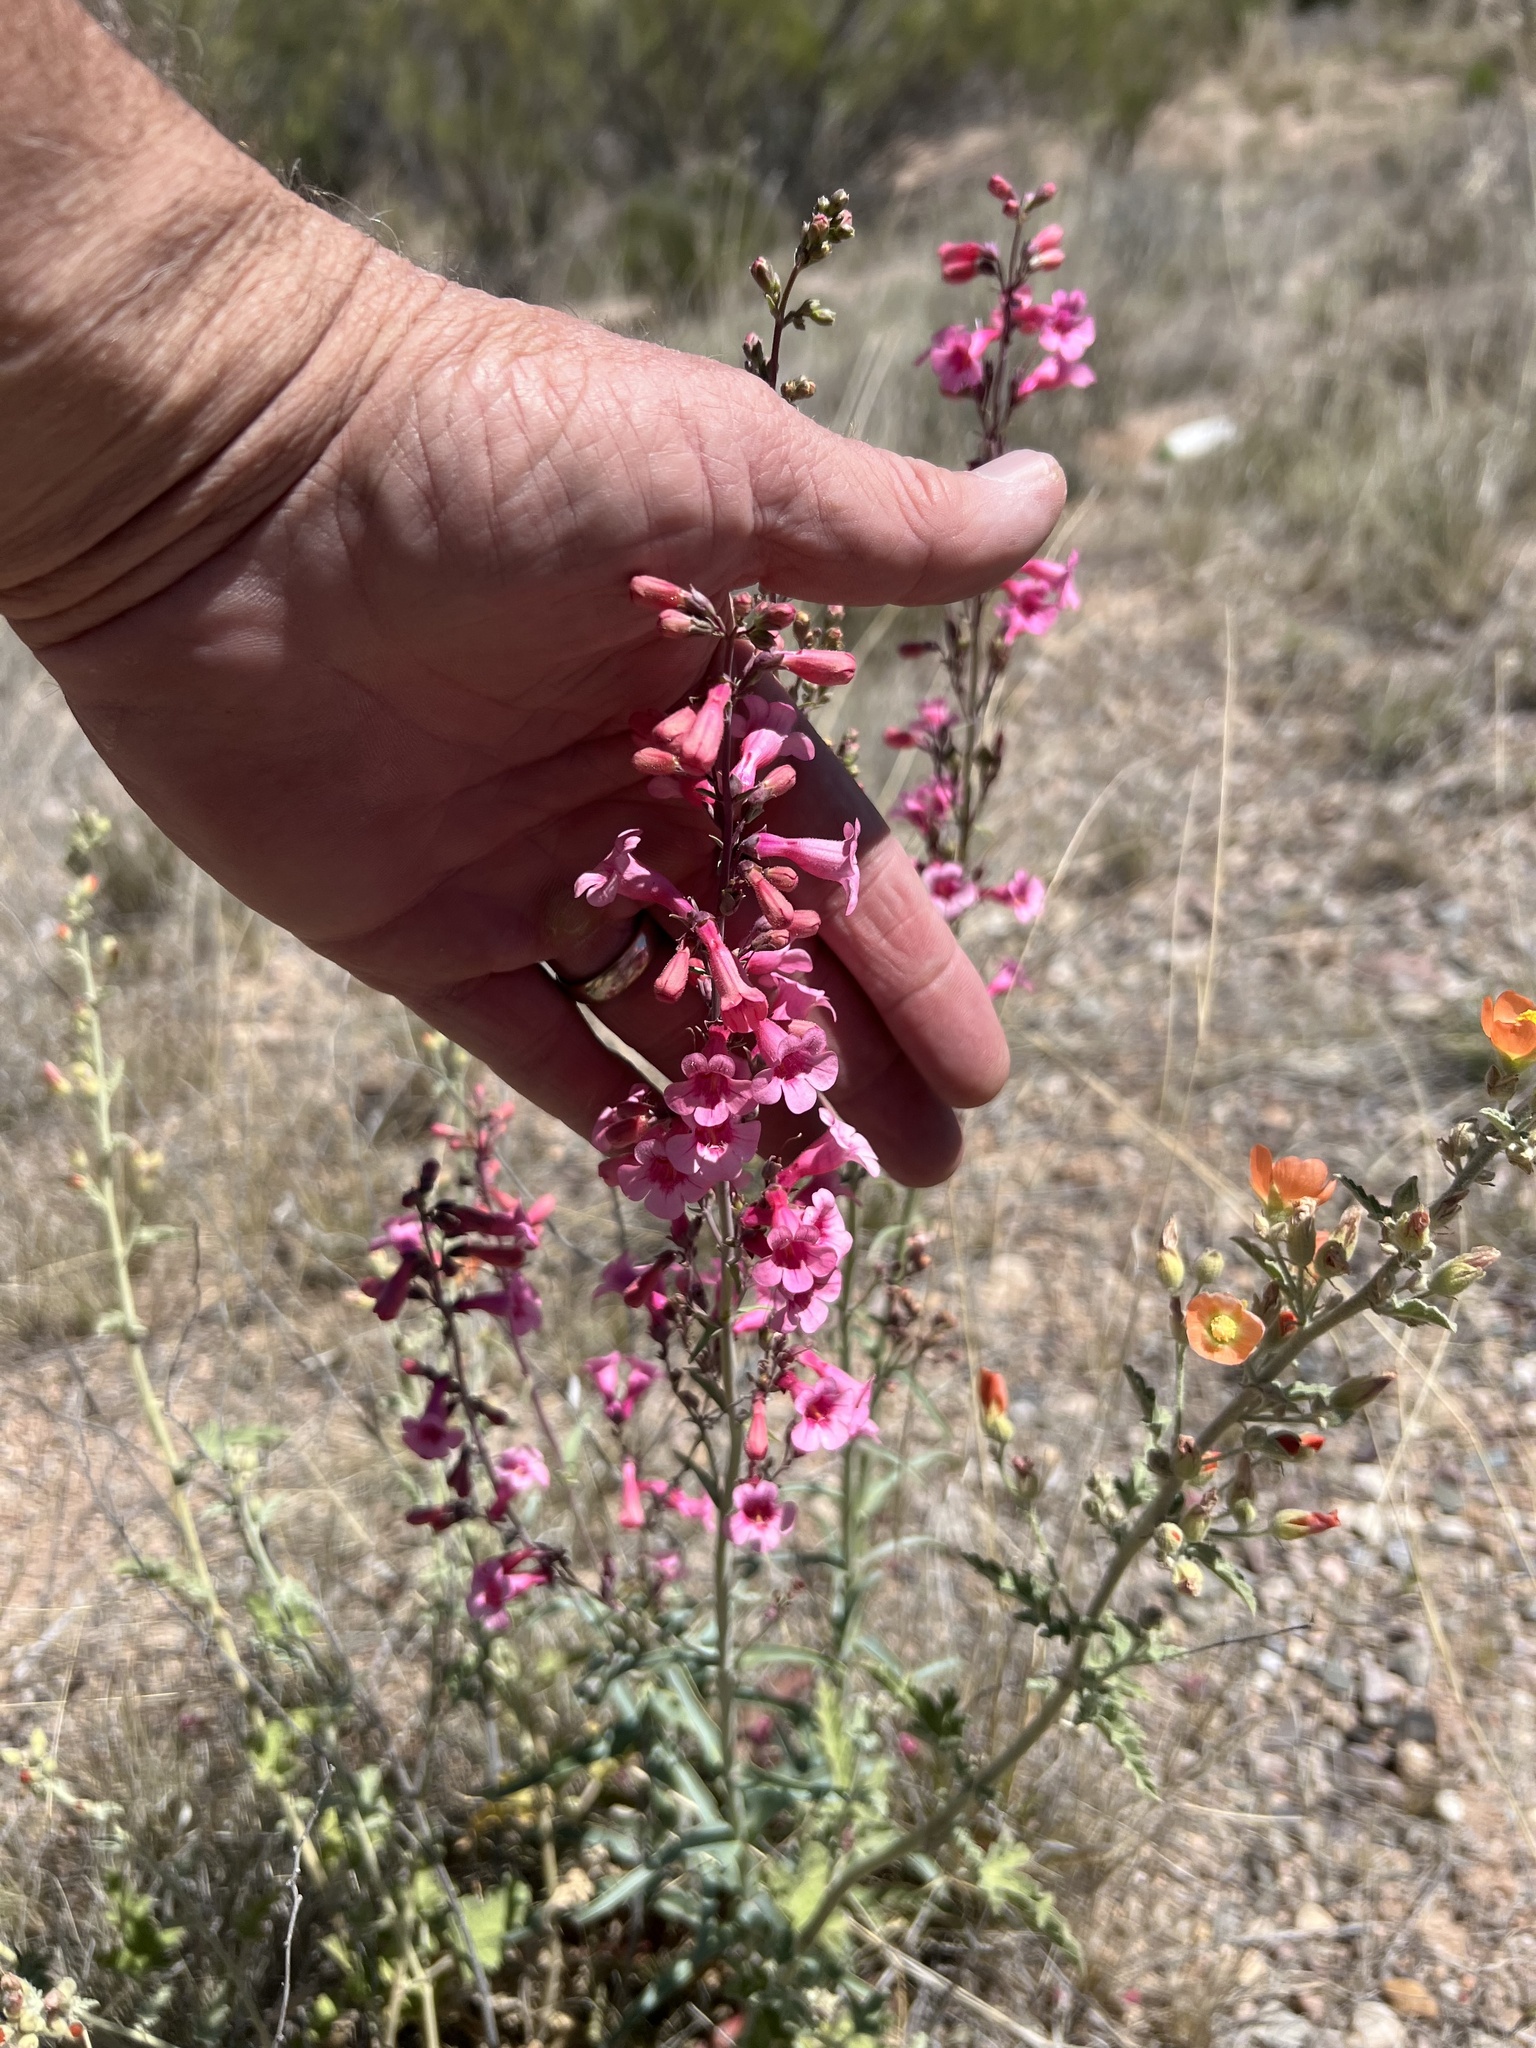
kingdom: Plantae
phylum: Tracheophyta
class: Magnoliopsida
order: Lamiales
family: Plantaginaceae
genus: Penstemon
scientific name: Penstemon parryi
